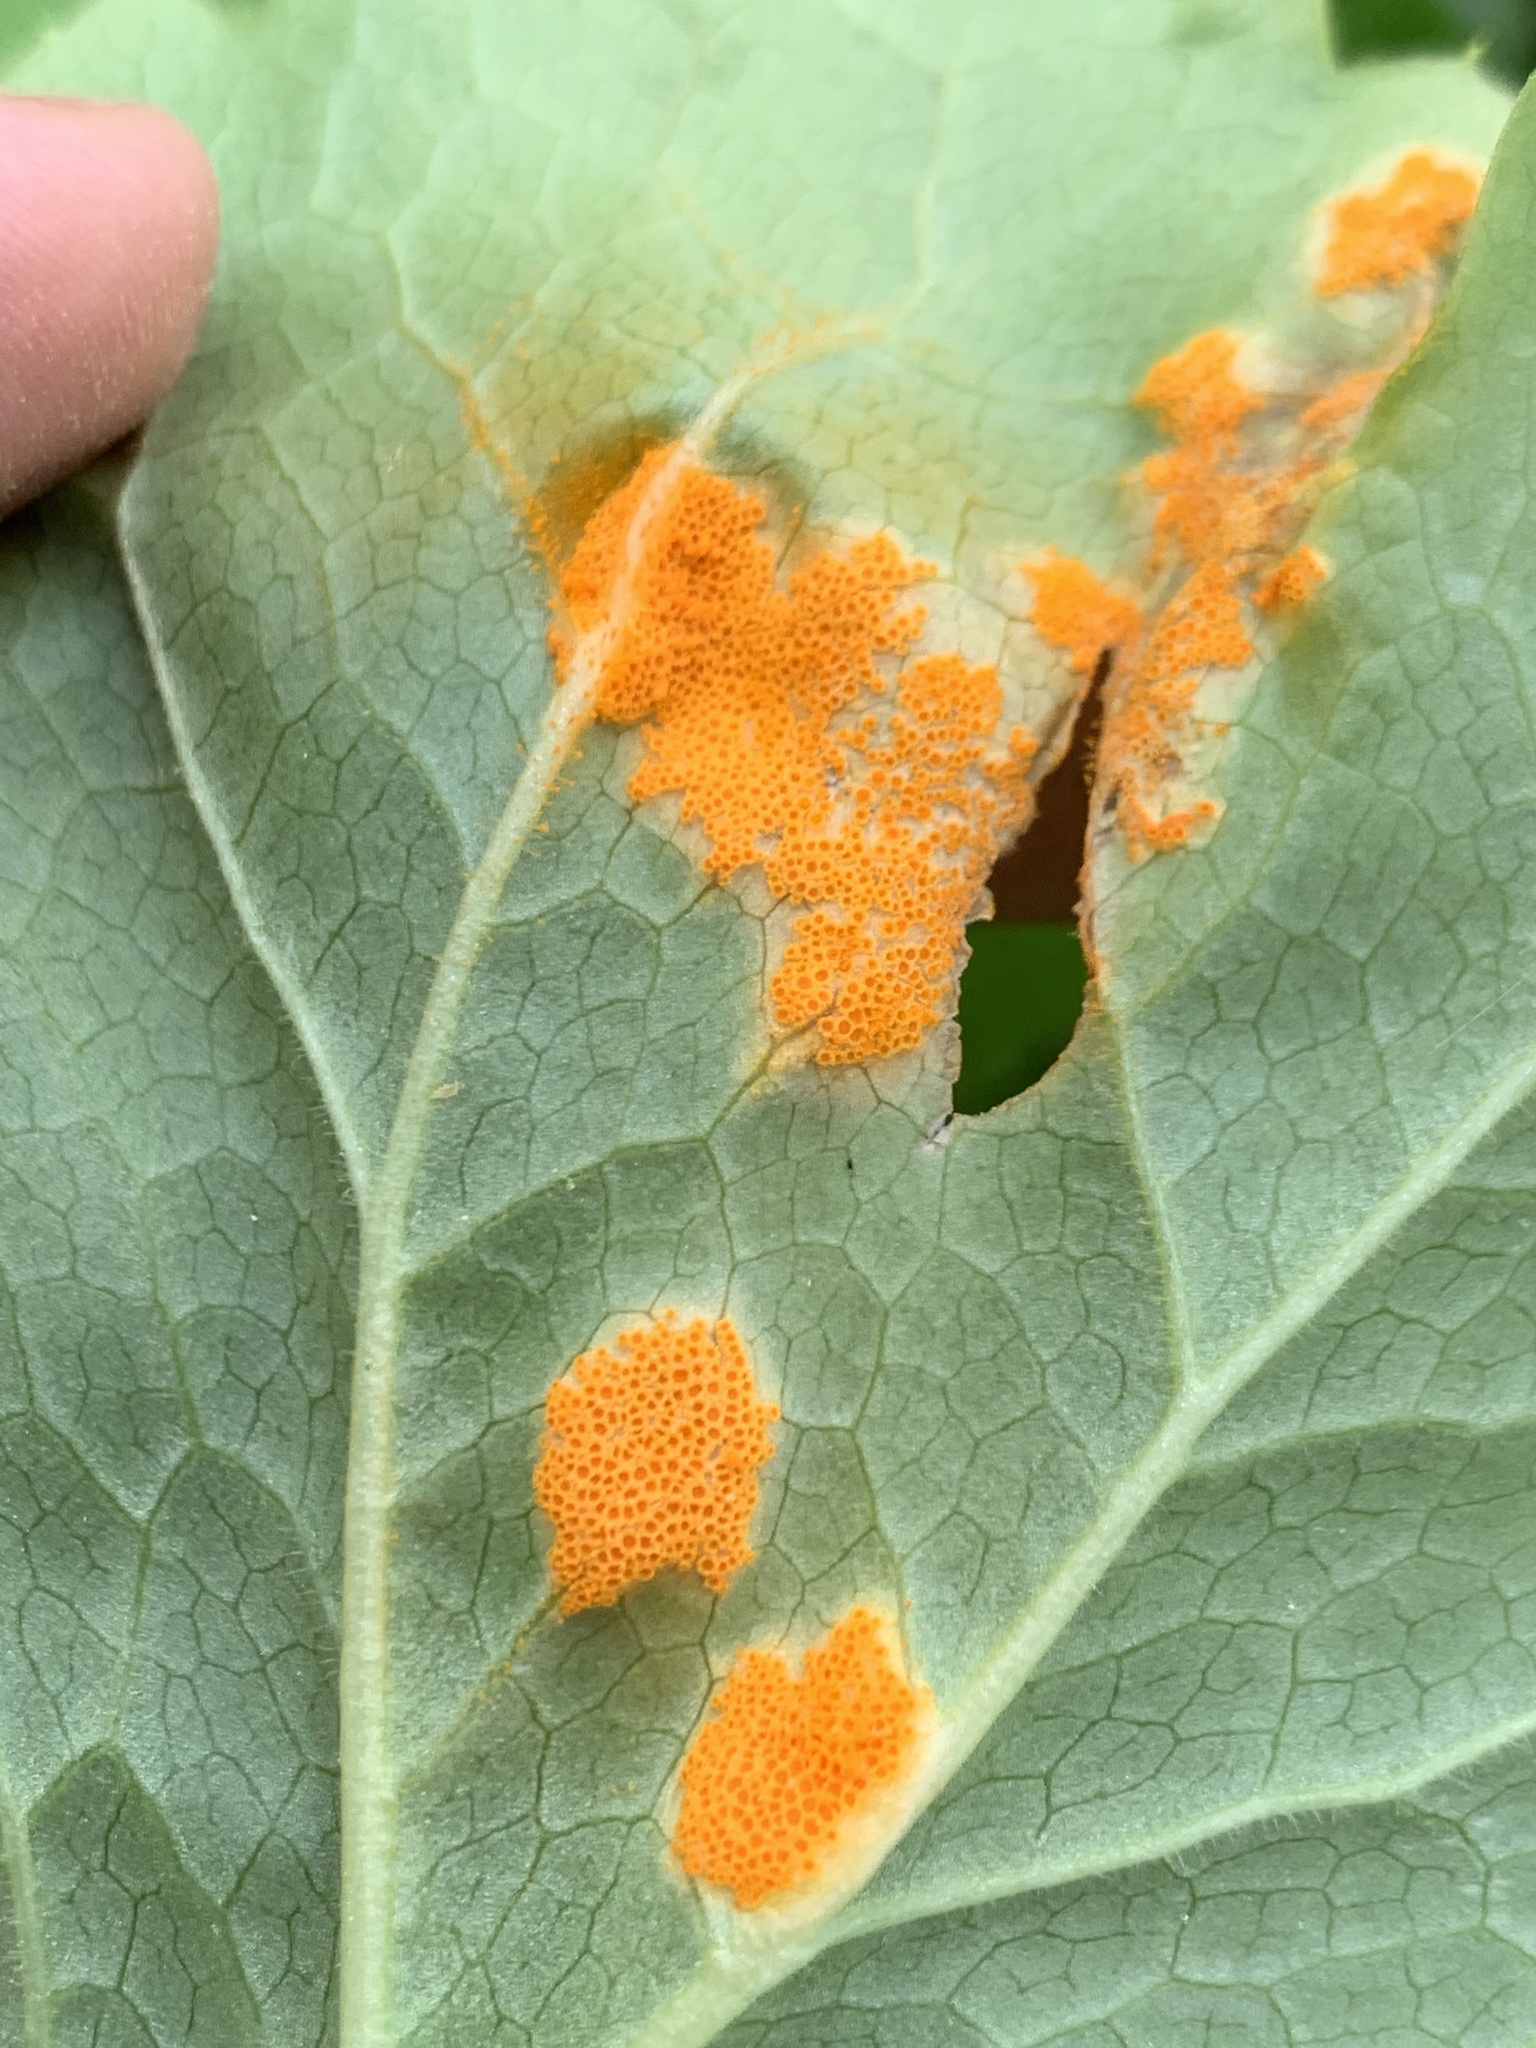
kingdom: Fungi
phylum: Basidiomycota
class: Pucciniomycetes
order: Pucciniales
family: Pucciniaceae
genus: Puccinia
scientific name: Puccinia podophylli
